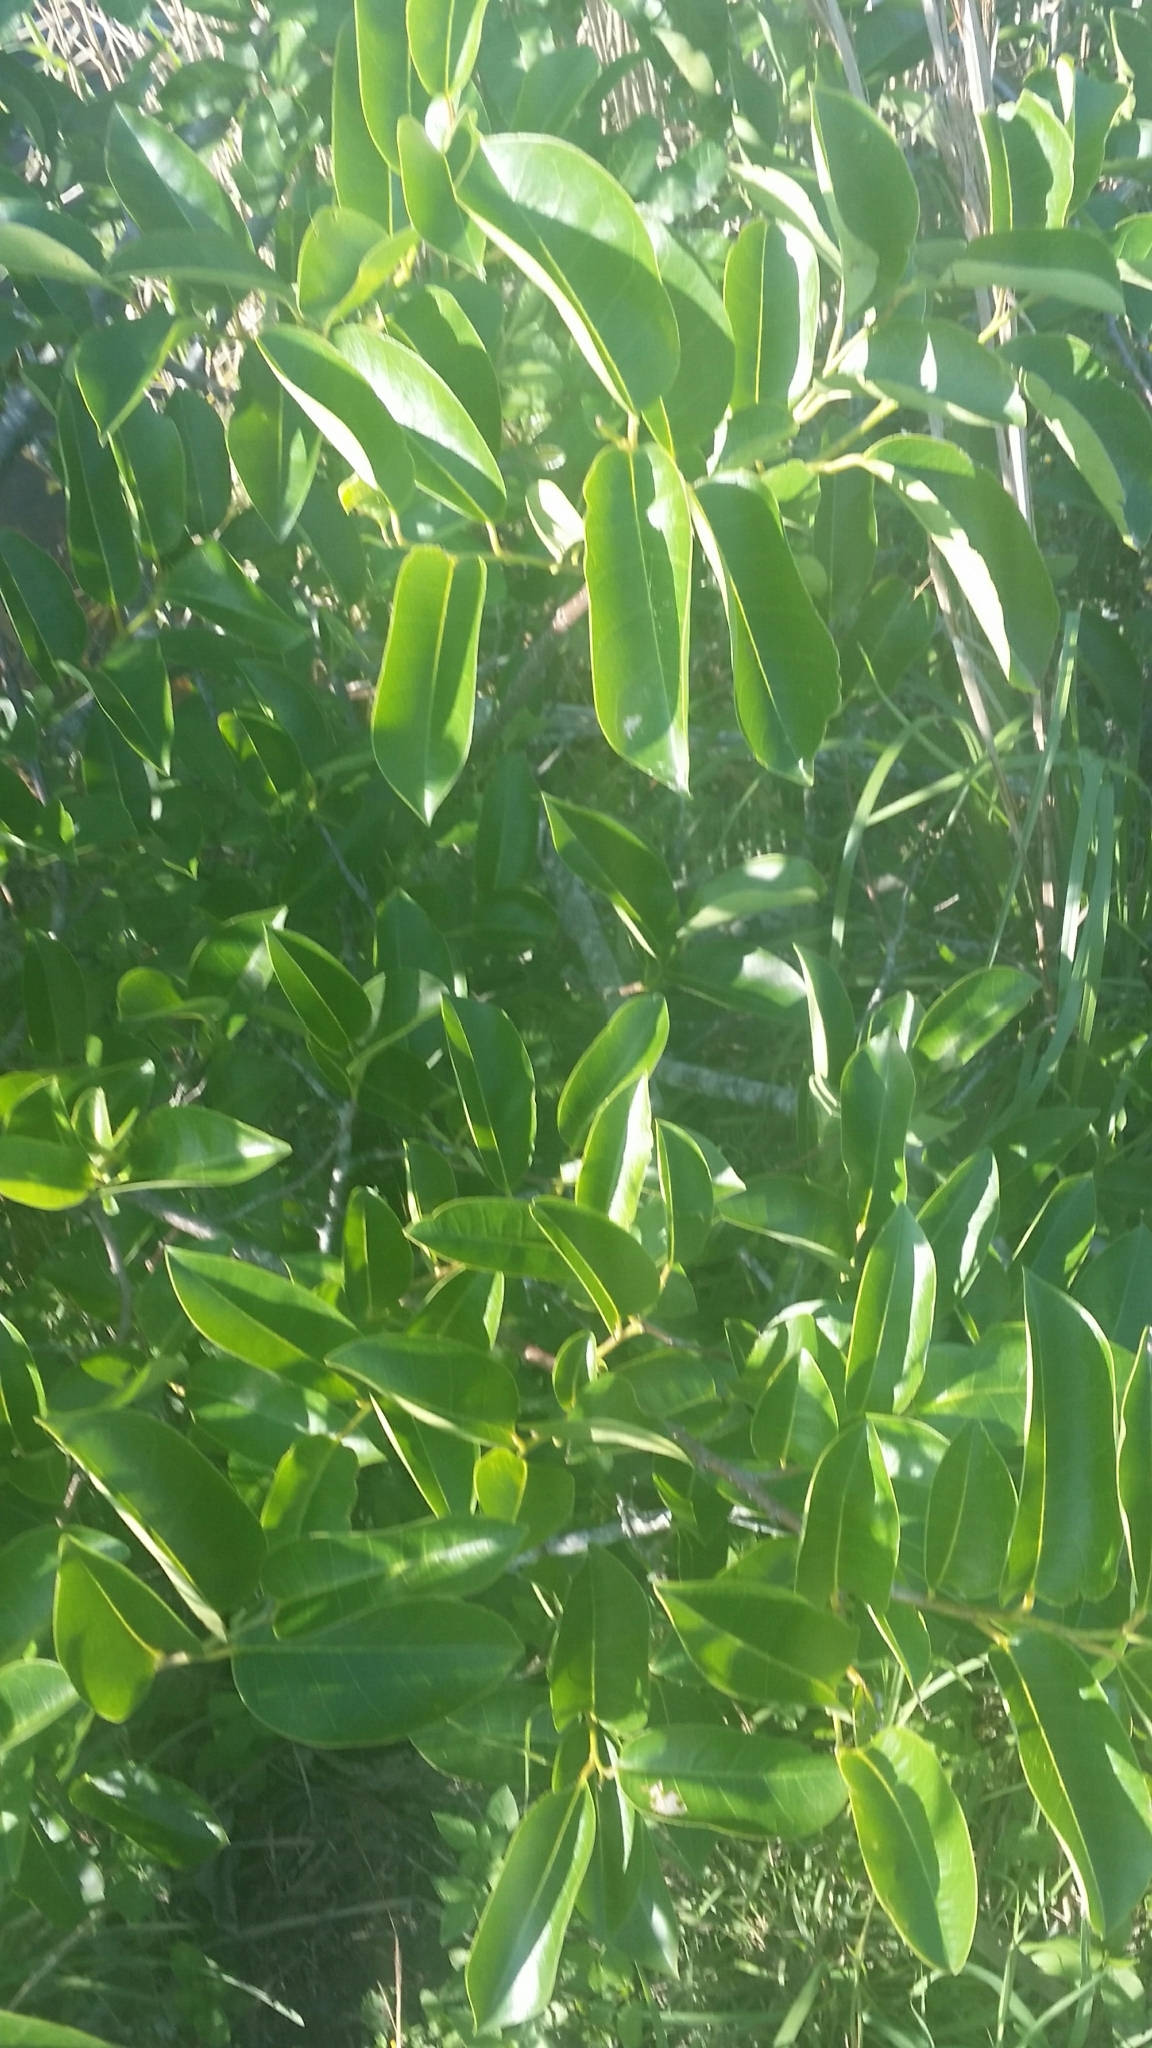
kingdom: Plantae
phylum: Tracheophyta
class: Magnoliopsida
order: Magnoliales
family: Annonaceae
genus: Annona
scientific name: Annona glabra
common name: Monkey apple
